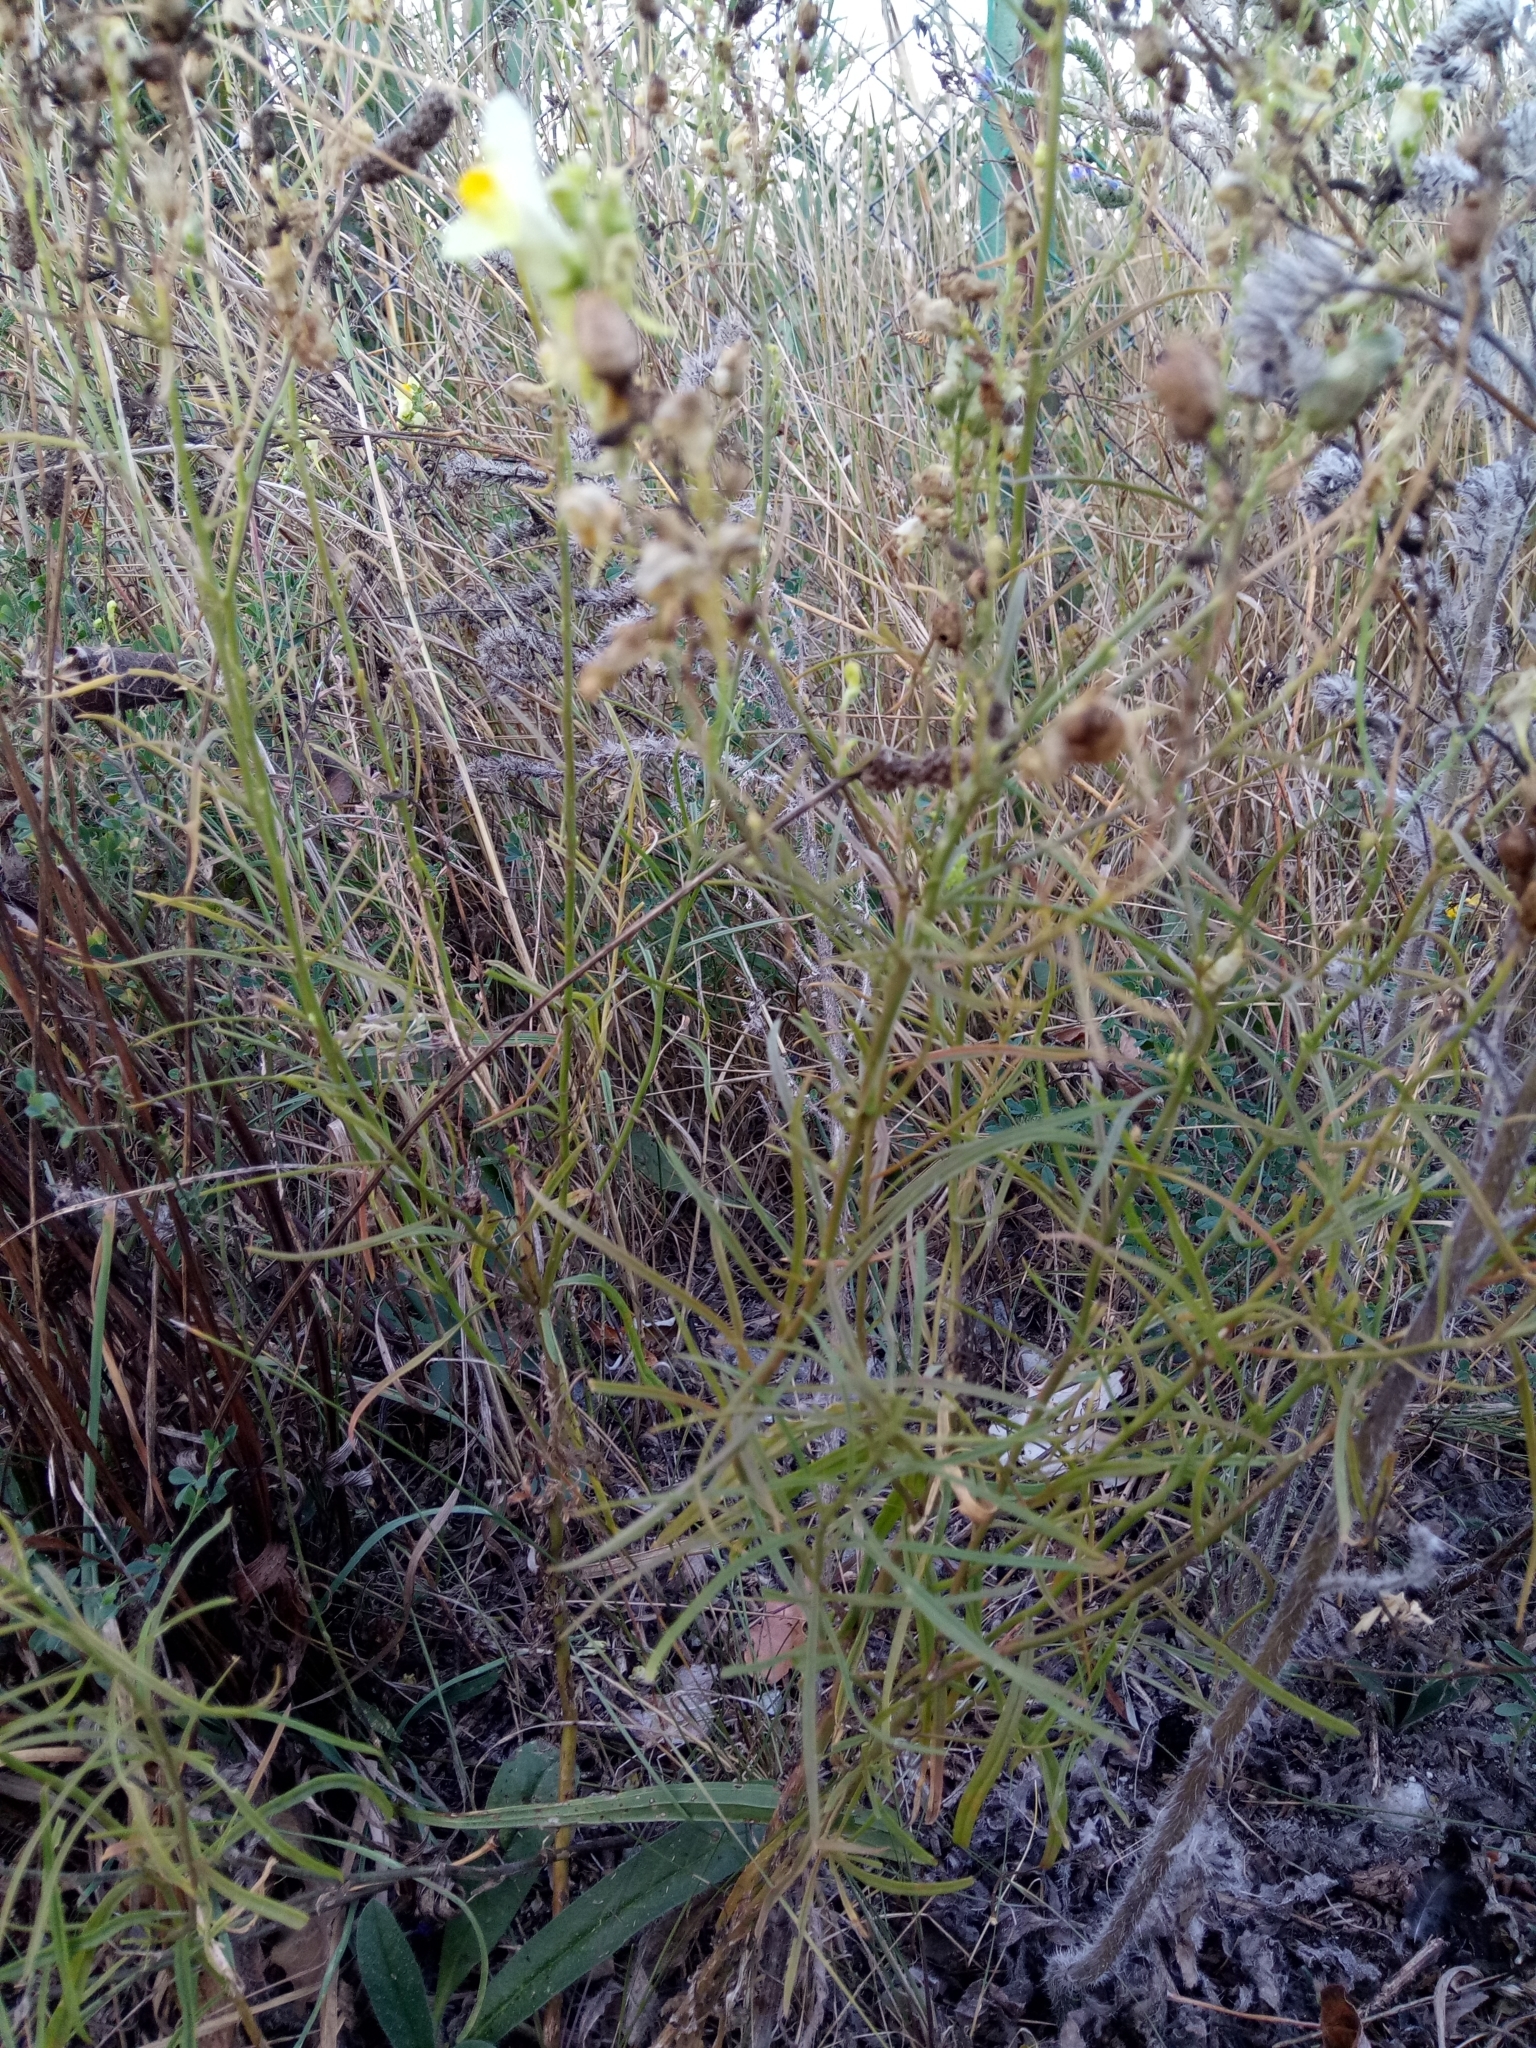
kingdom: Plantae
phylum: Tracheophyta
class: Magnoliopsida
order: Lamiales
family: Plantaginaceae
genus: Linaria
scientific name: Linaria vulgaris
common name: Butter and eggs
